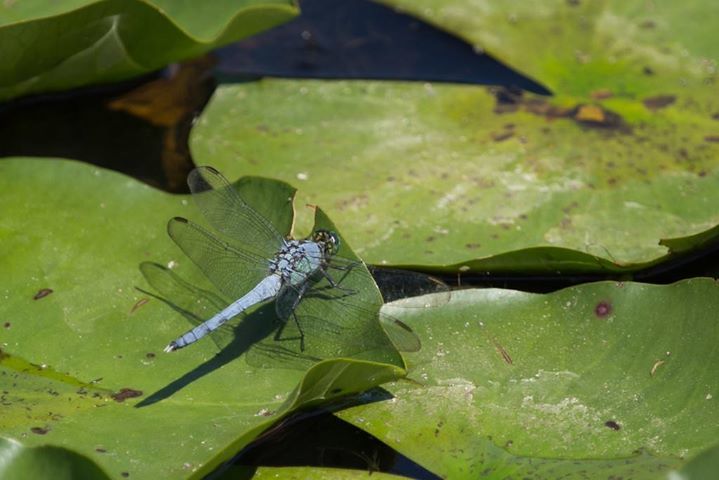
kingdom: Animalia
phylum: Arthropoda
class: Insecta
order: Odonata
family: Libellulidae
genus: Erythemis
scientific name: Erythemis simplicicollis
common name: Eastern pondhawk
